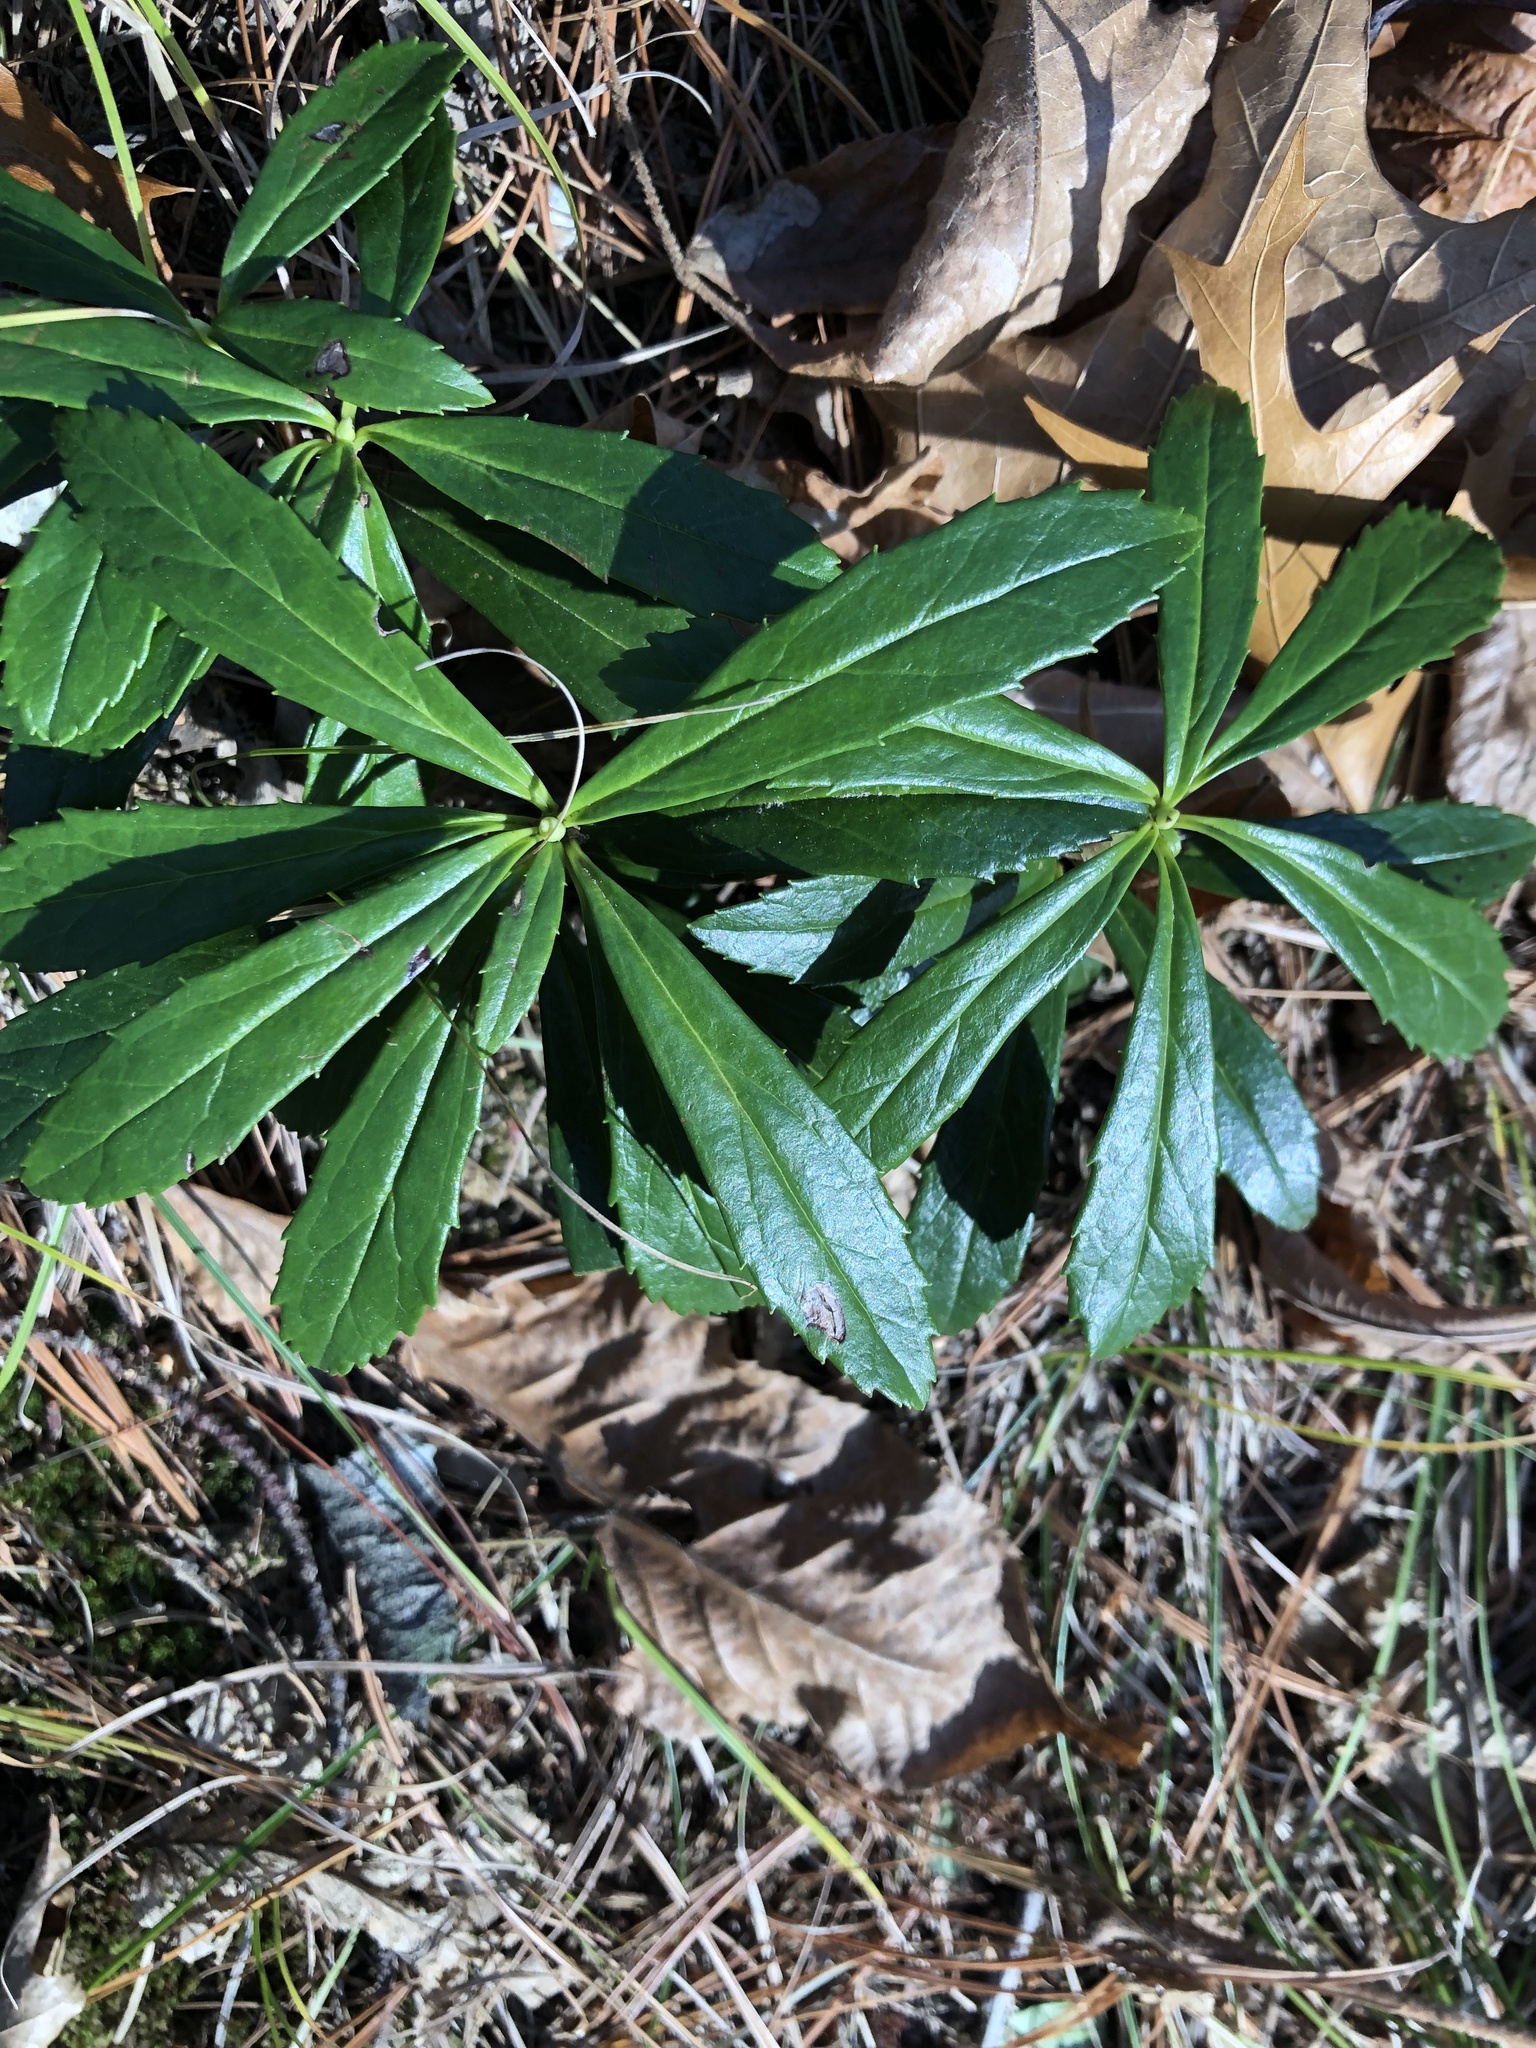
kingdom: Plantae
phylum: Tracheophyta
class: Magnoliopsida
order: Ericales
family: Ericaceae
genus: Chimaphila
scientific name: Chimaphila umbellata
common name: Pipsissewa
